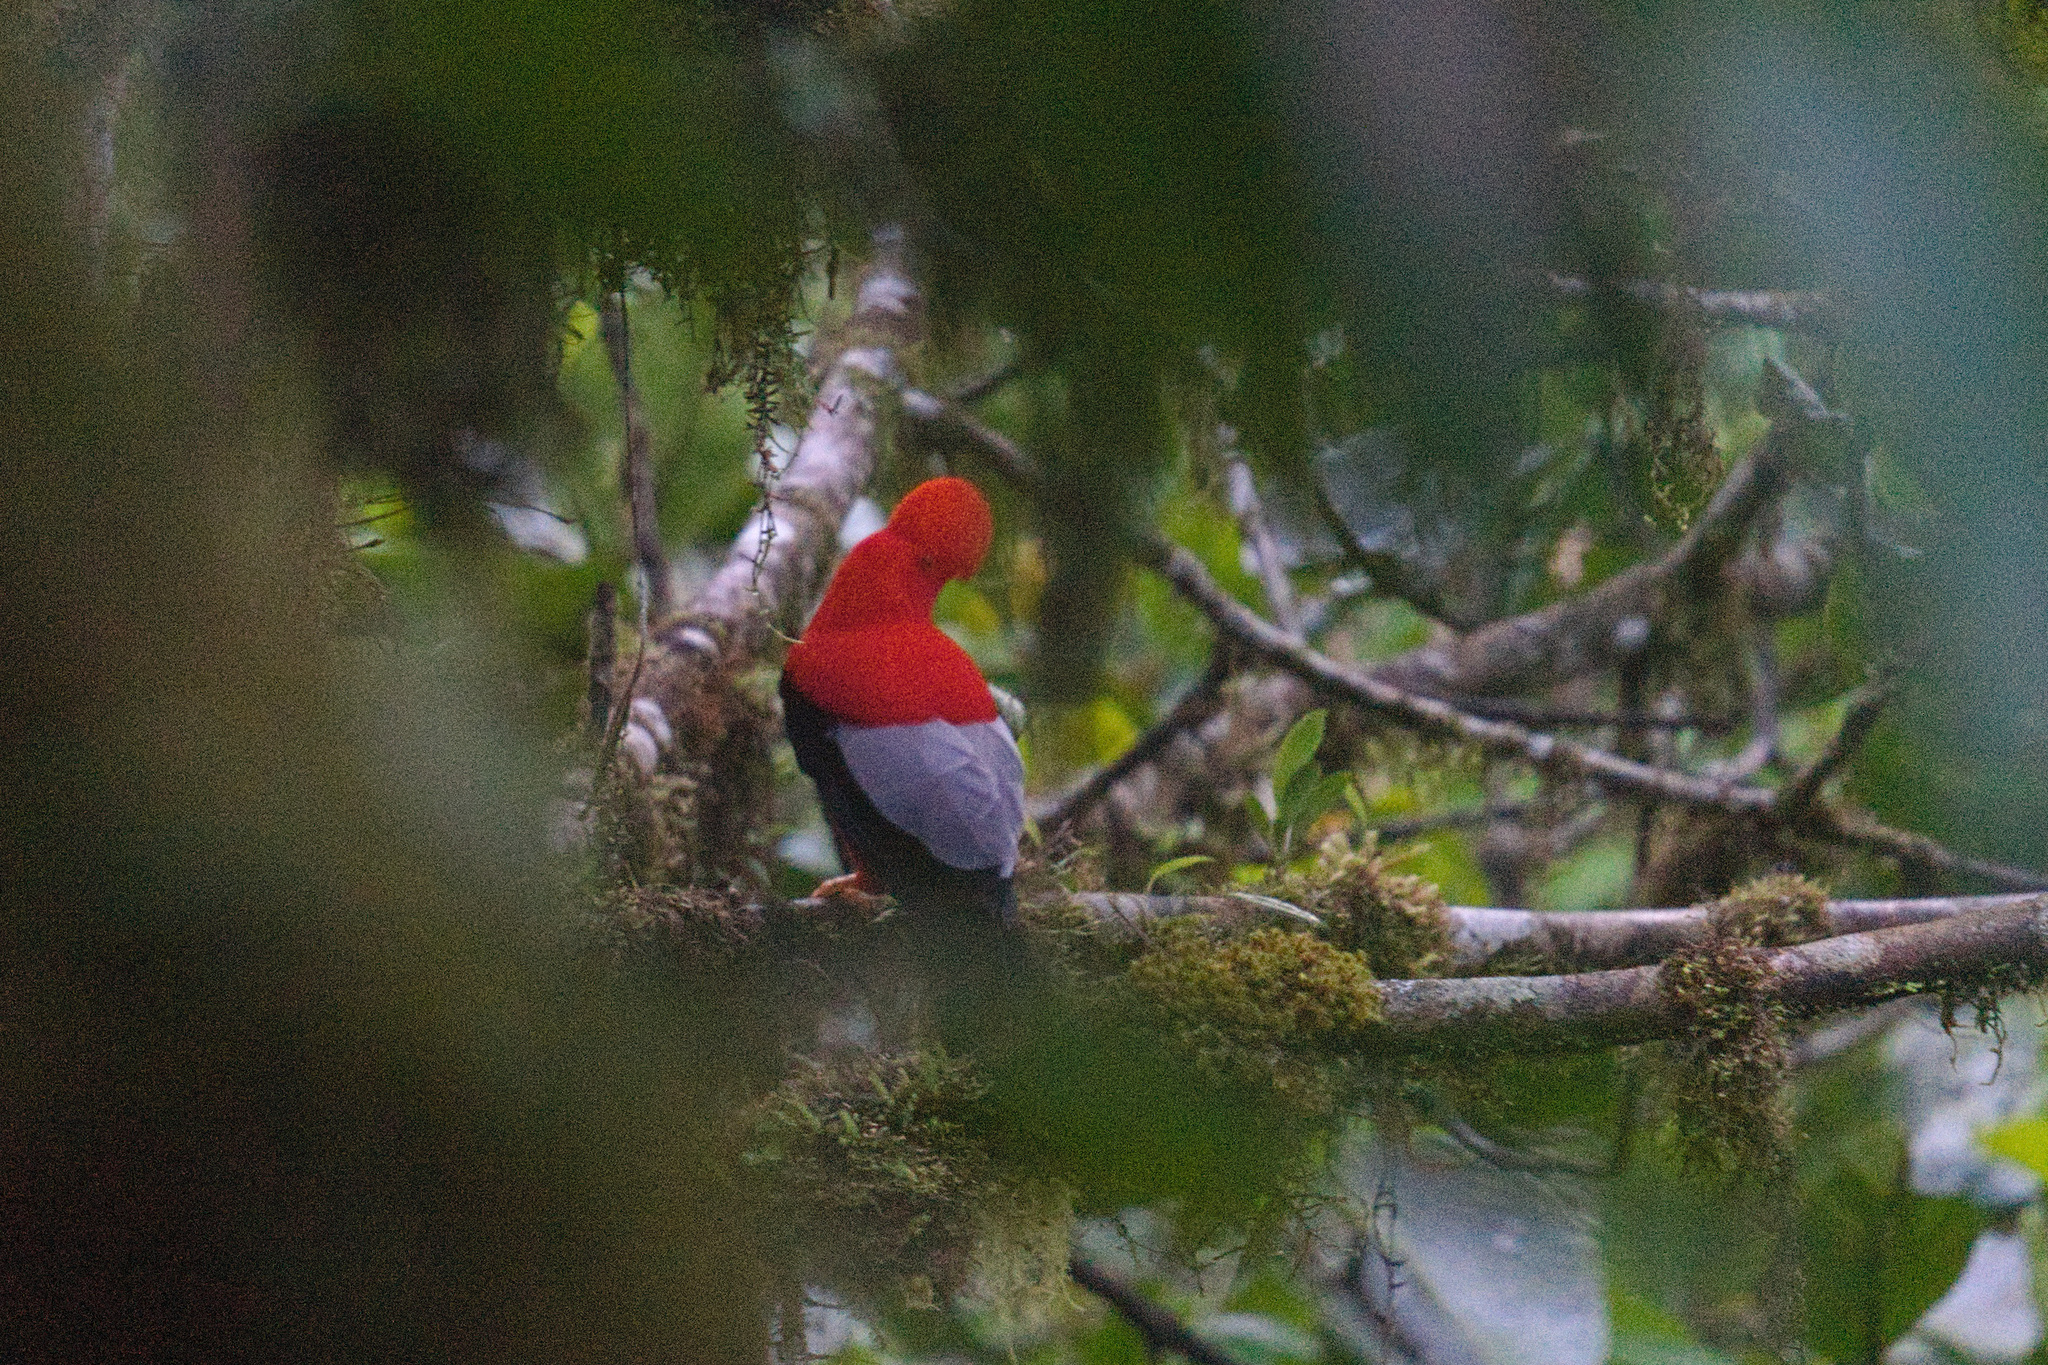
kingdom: Animalia
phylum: Chordata
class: Aves
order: Passeriformes
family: Cotingidae
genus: Rupicola
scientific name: Rupicola peruvianus
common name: Andean cock-of-the-rock
